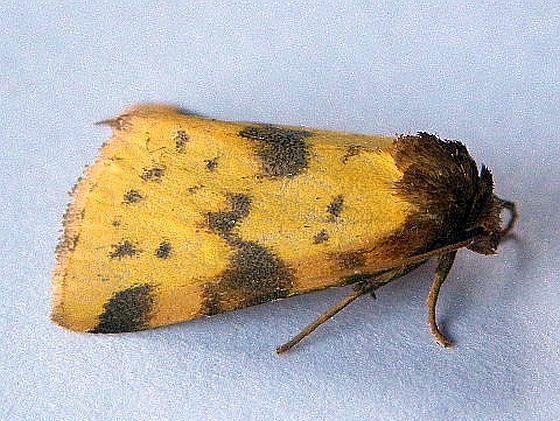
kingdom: Animalia
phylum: Arthropoda
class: Insecta
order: Lepidoptera
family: Noctuidae
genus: Azenia
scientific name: Azenia obtusa
